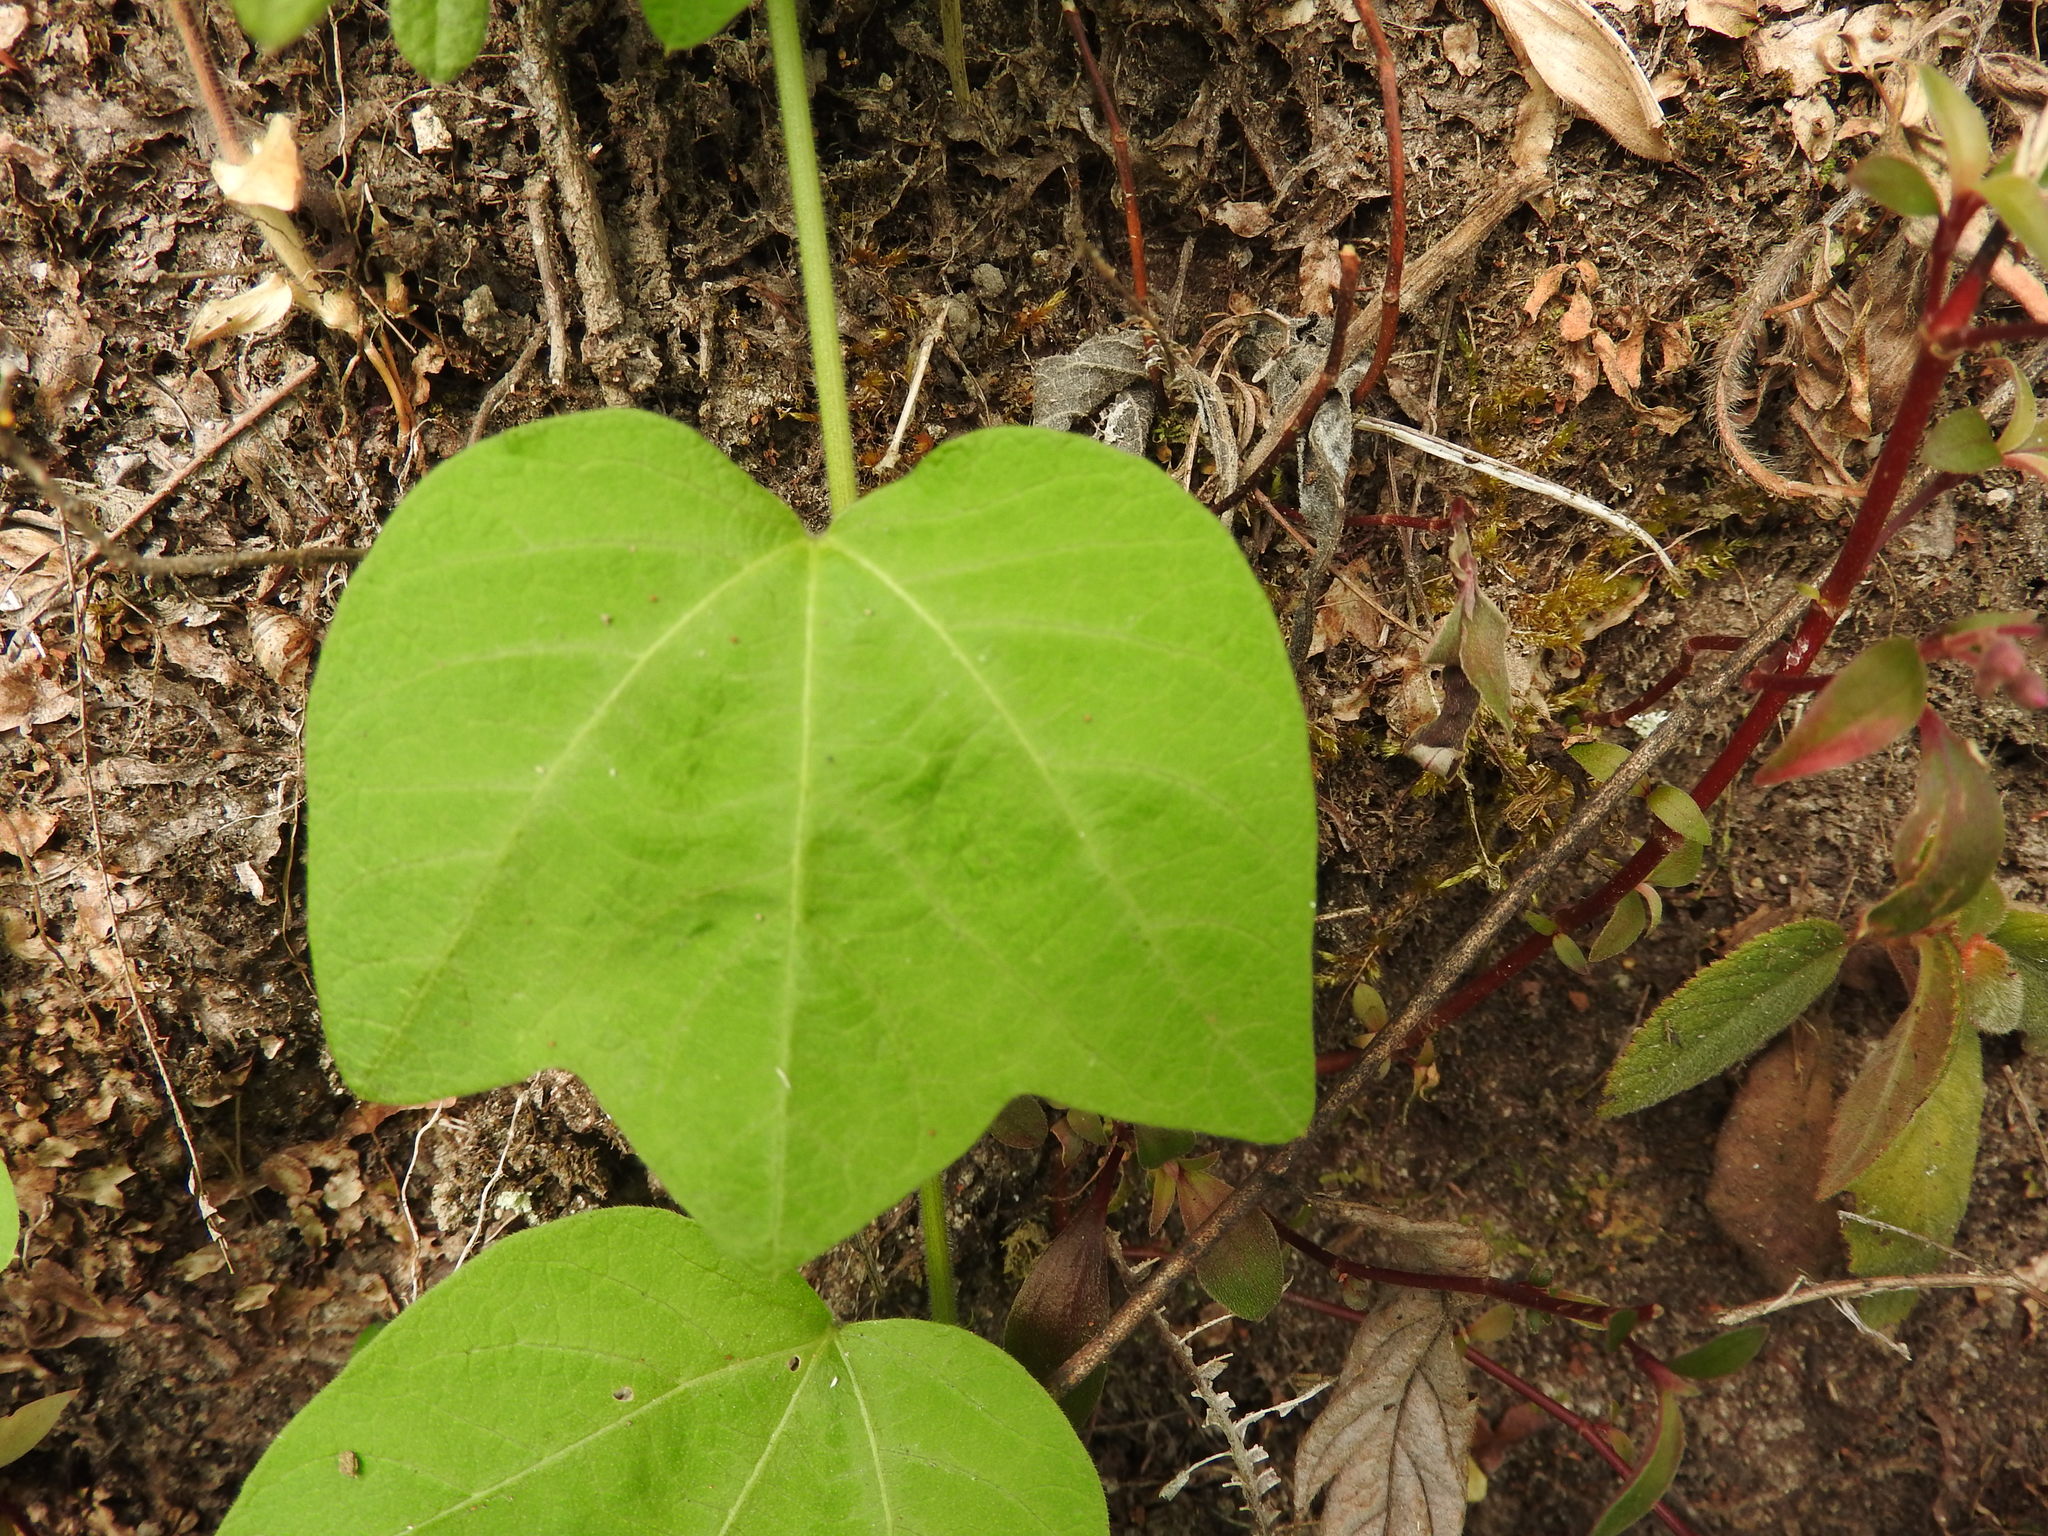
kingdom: Plantae
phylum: Tracheophyta
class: Magnoliopsida
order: Malpighiales
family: Passifloraceae
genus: Passiflora
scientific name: Passiflora sexflora
